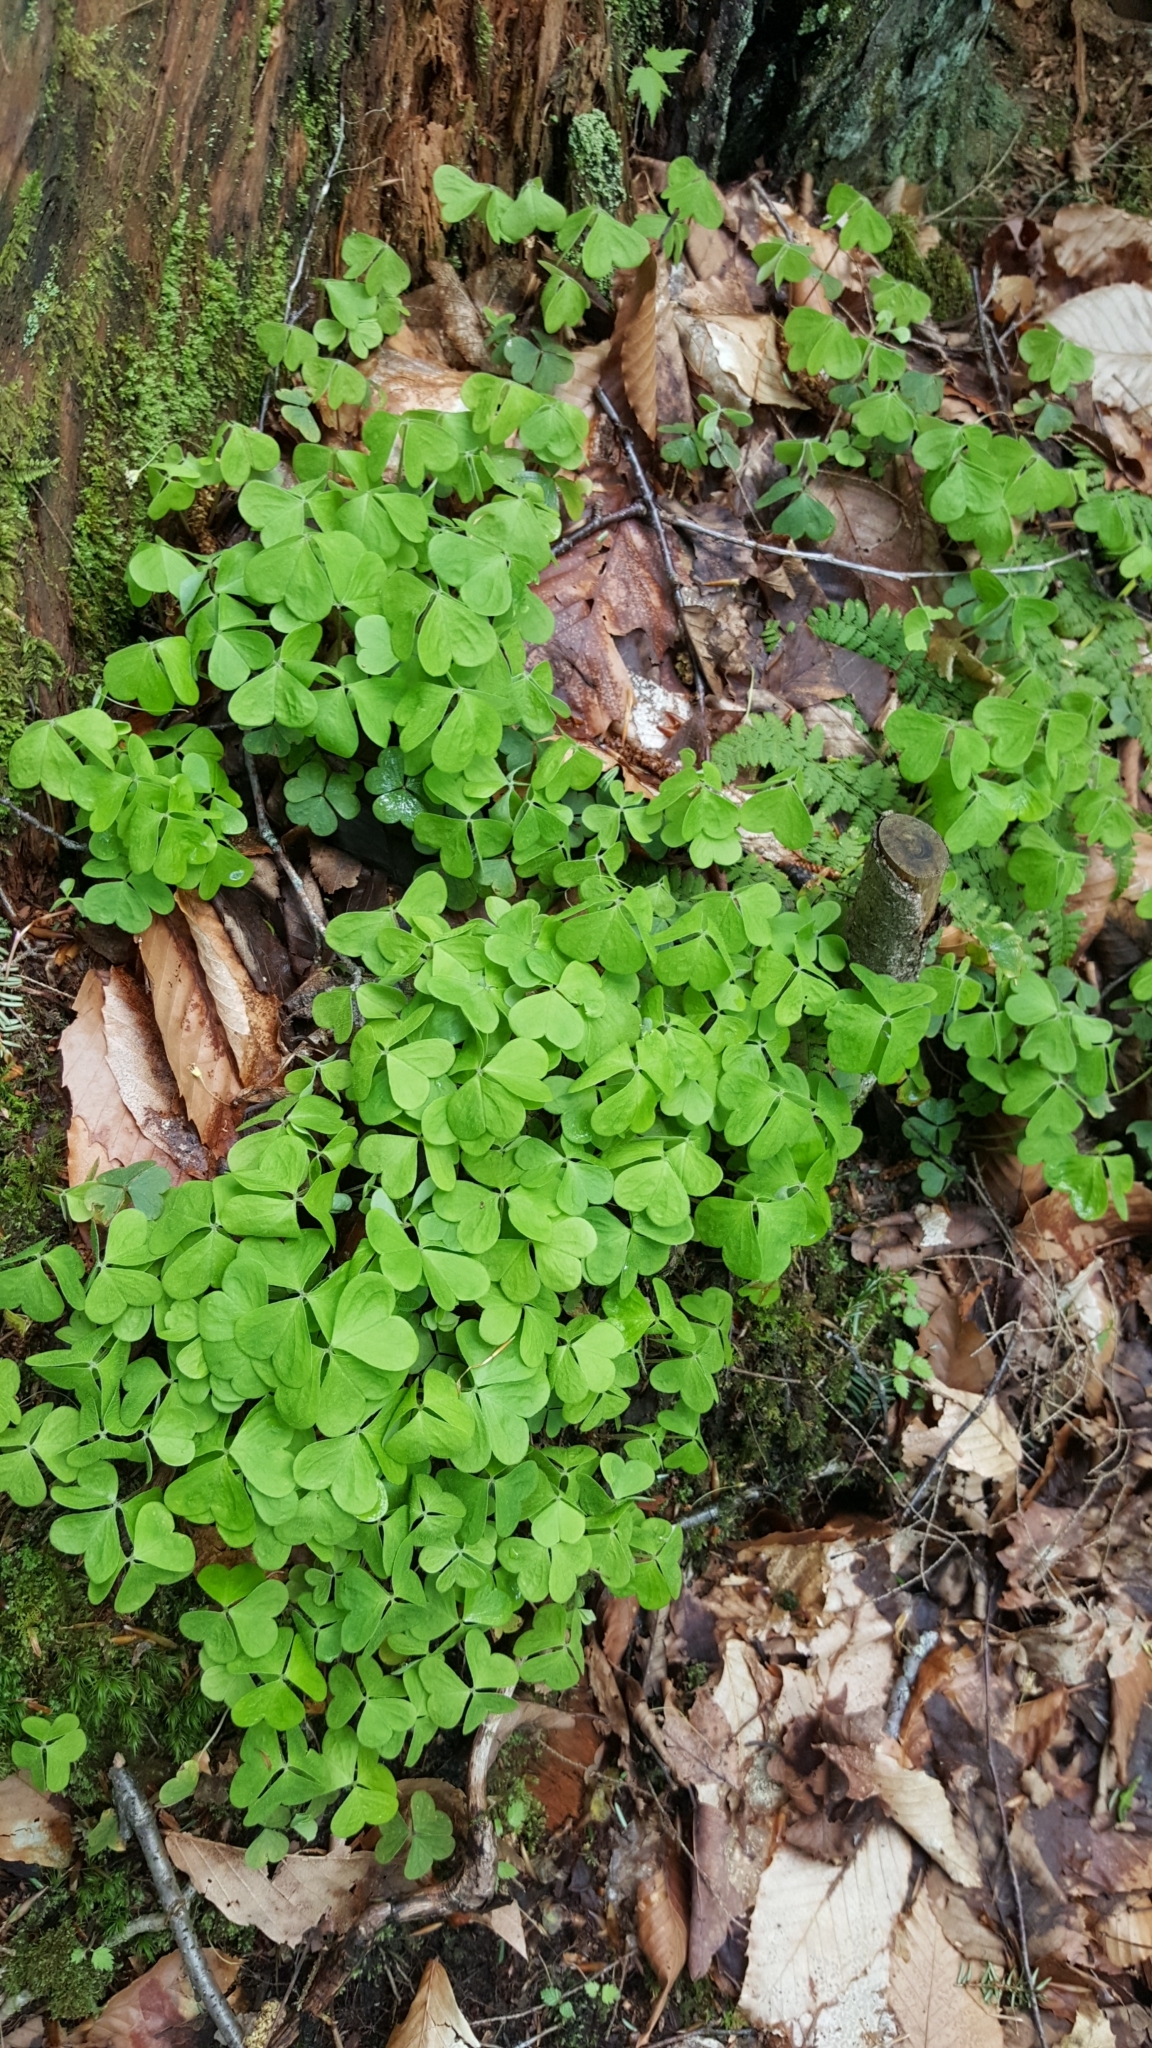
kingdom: Plantae
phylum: Tracheophyta
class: Magnoliopsida
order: Oxalidales
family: Oxalidaceae
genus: Oxalis
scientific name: Oxalis montana
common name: American wood-sorrel
